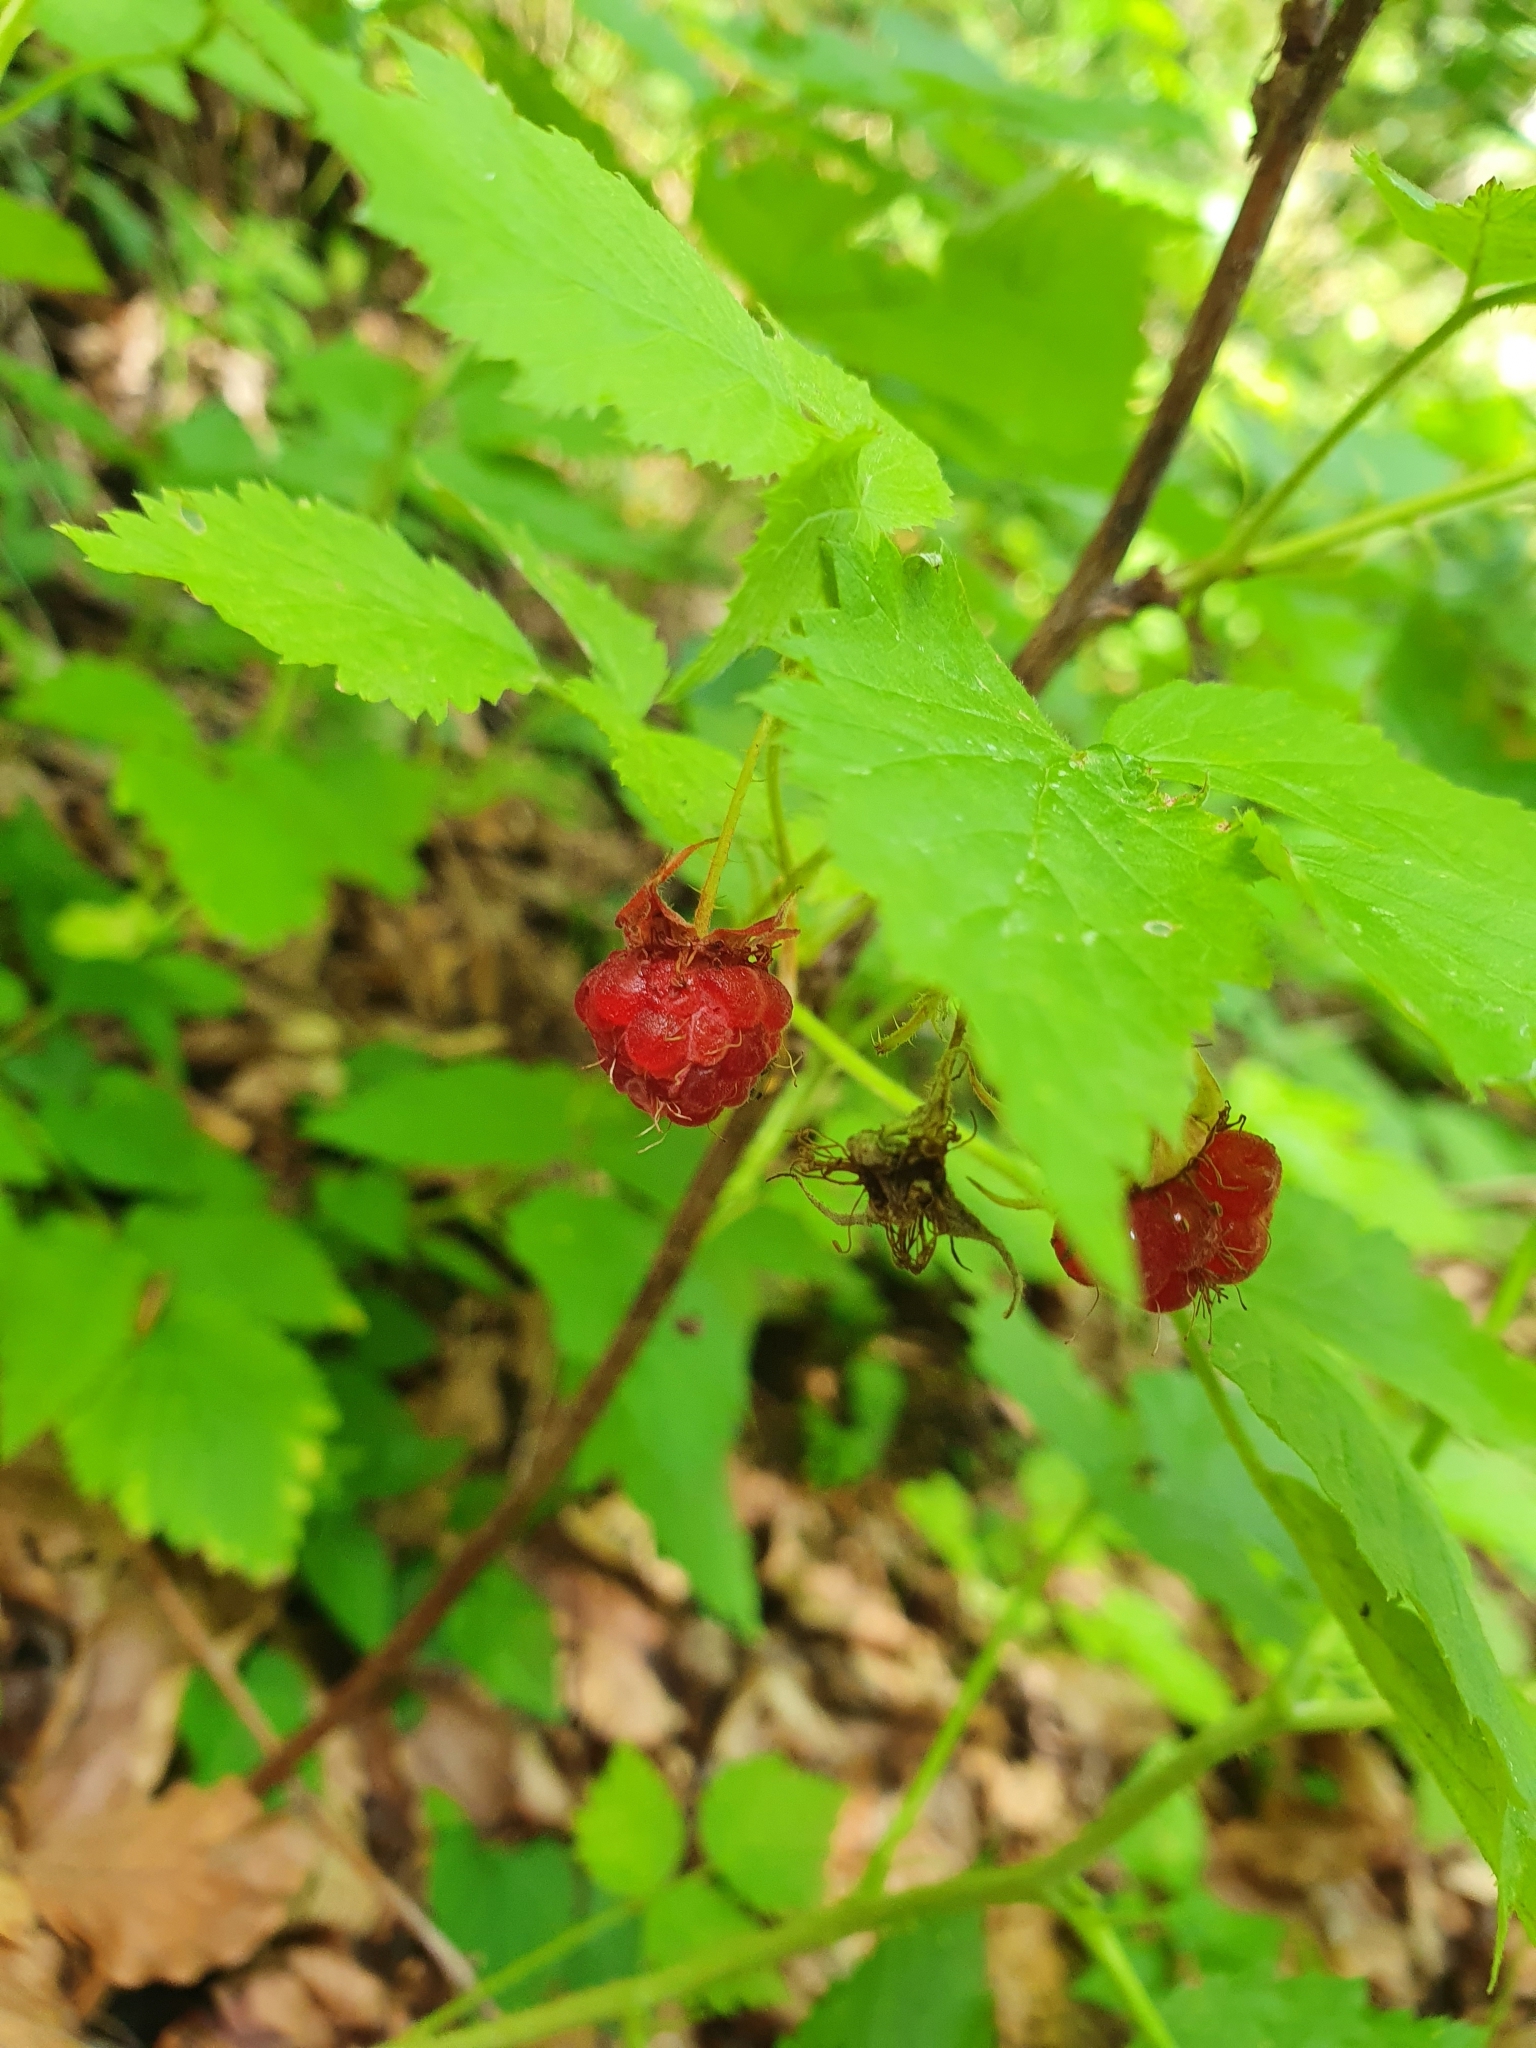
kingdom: Plantae
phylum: Tracheophyta
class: Magnoliopsida
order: Rosales
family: Rosaceae
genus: Rubus
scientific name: Rubus idaeus
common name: Raspberry
